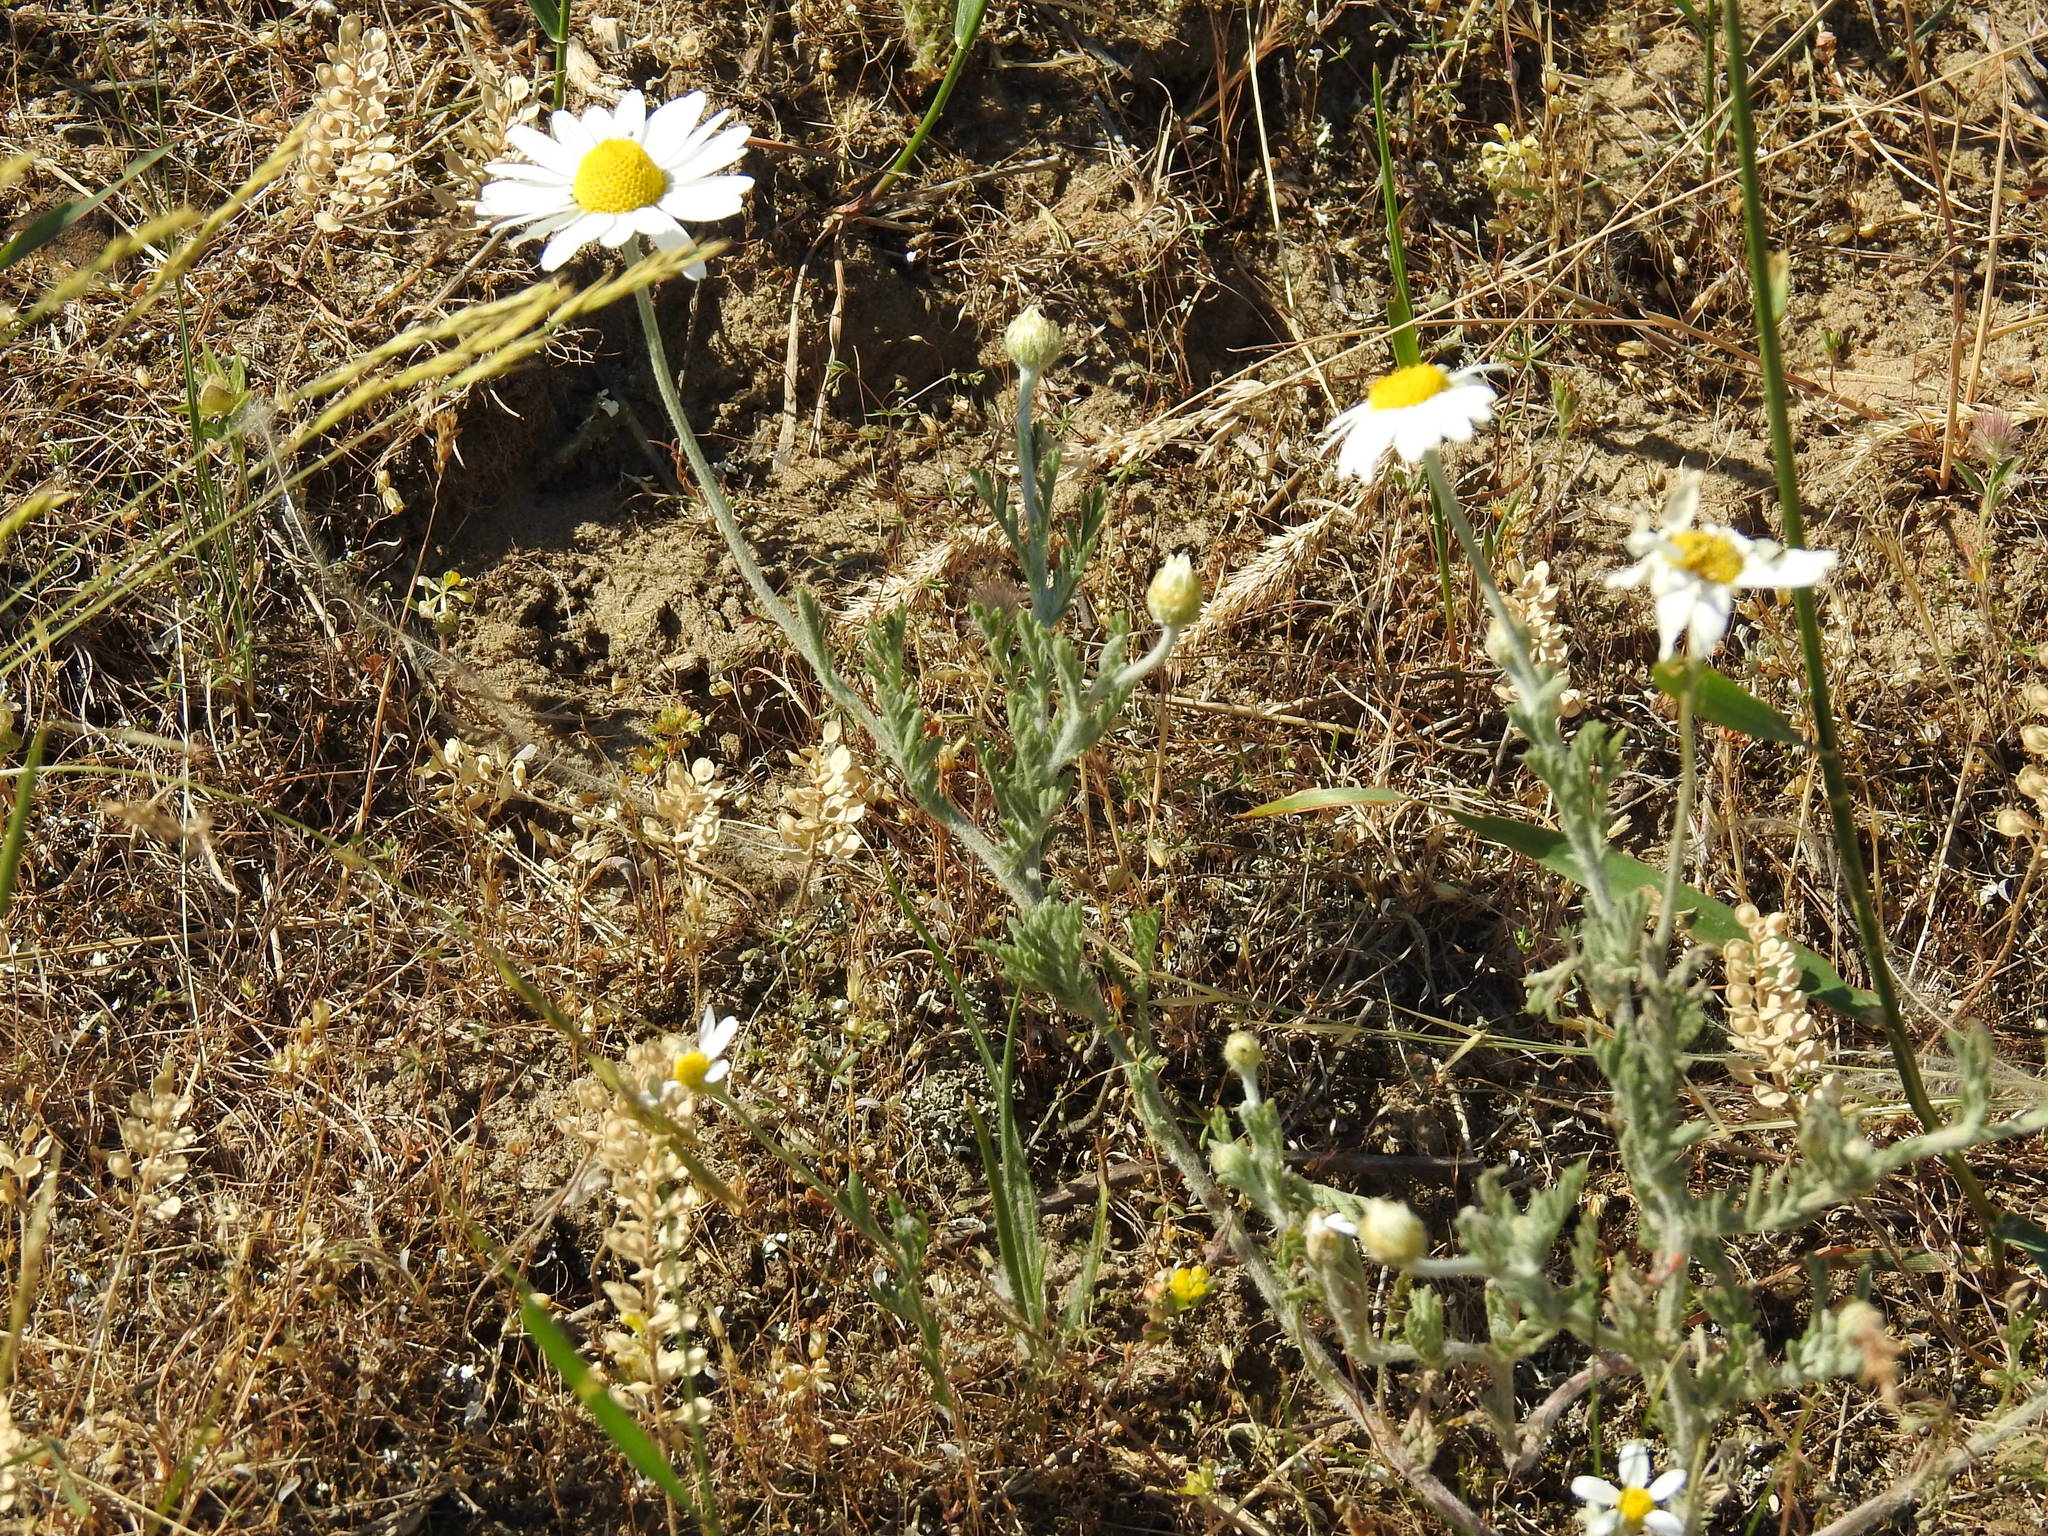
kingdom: Plantae
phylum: Tracheophyta
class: Magnoliopsida
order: Asterales
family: Asteraceae
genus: Anthemis
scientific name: Anthemis ruthenica
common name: Eastern chamomile
